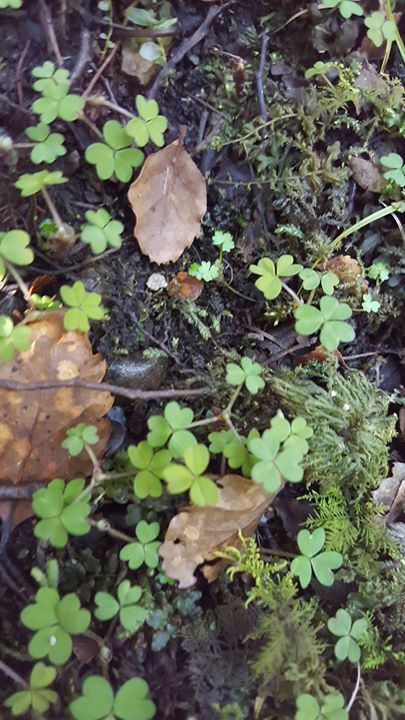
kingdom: Plantae
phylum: Tracheophyta
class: Magnoliopsida
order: Oxalidales
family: Oxalidaceae
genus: Oxalis
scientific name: Oxalis exilis
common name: Least yellow-sorrel
